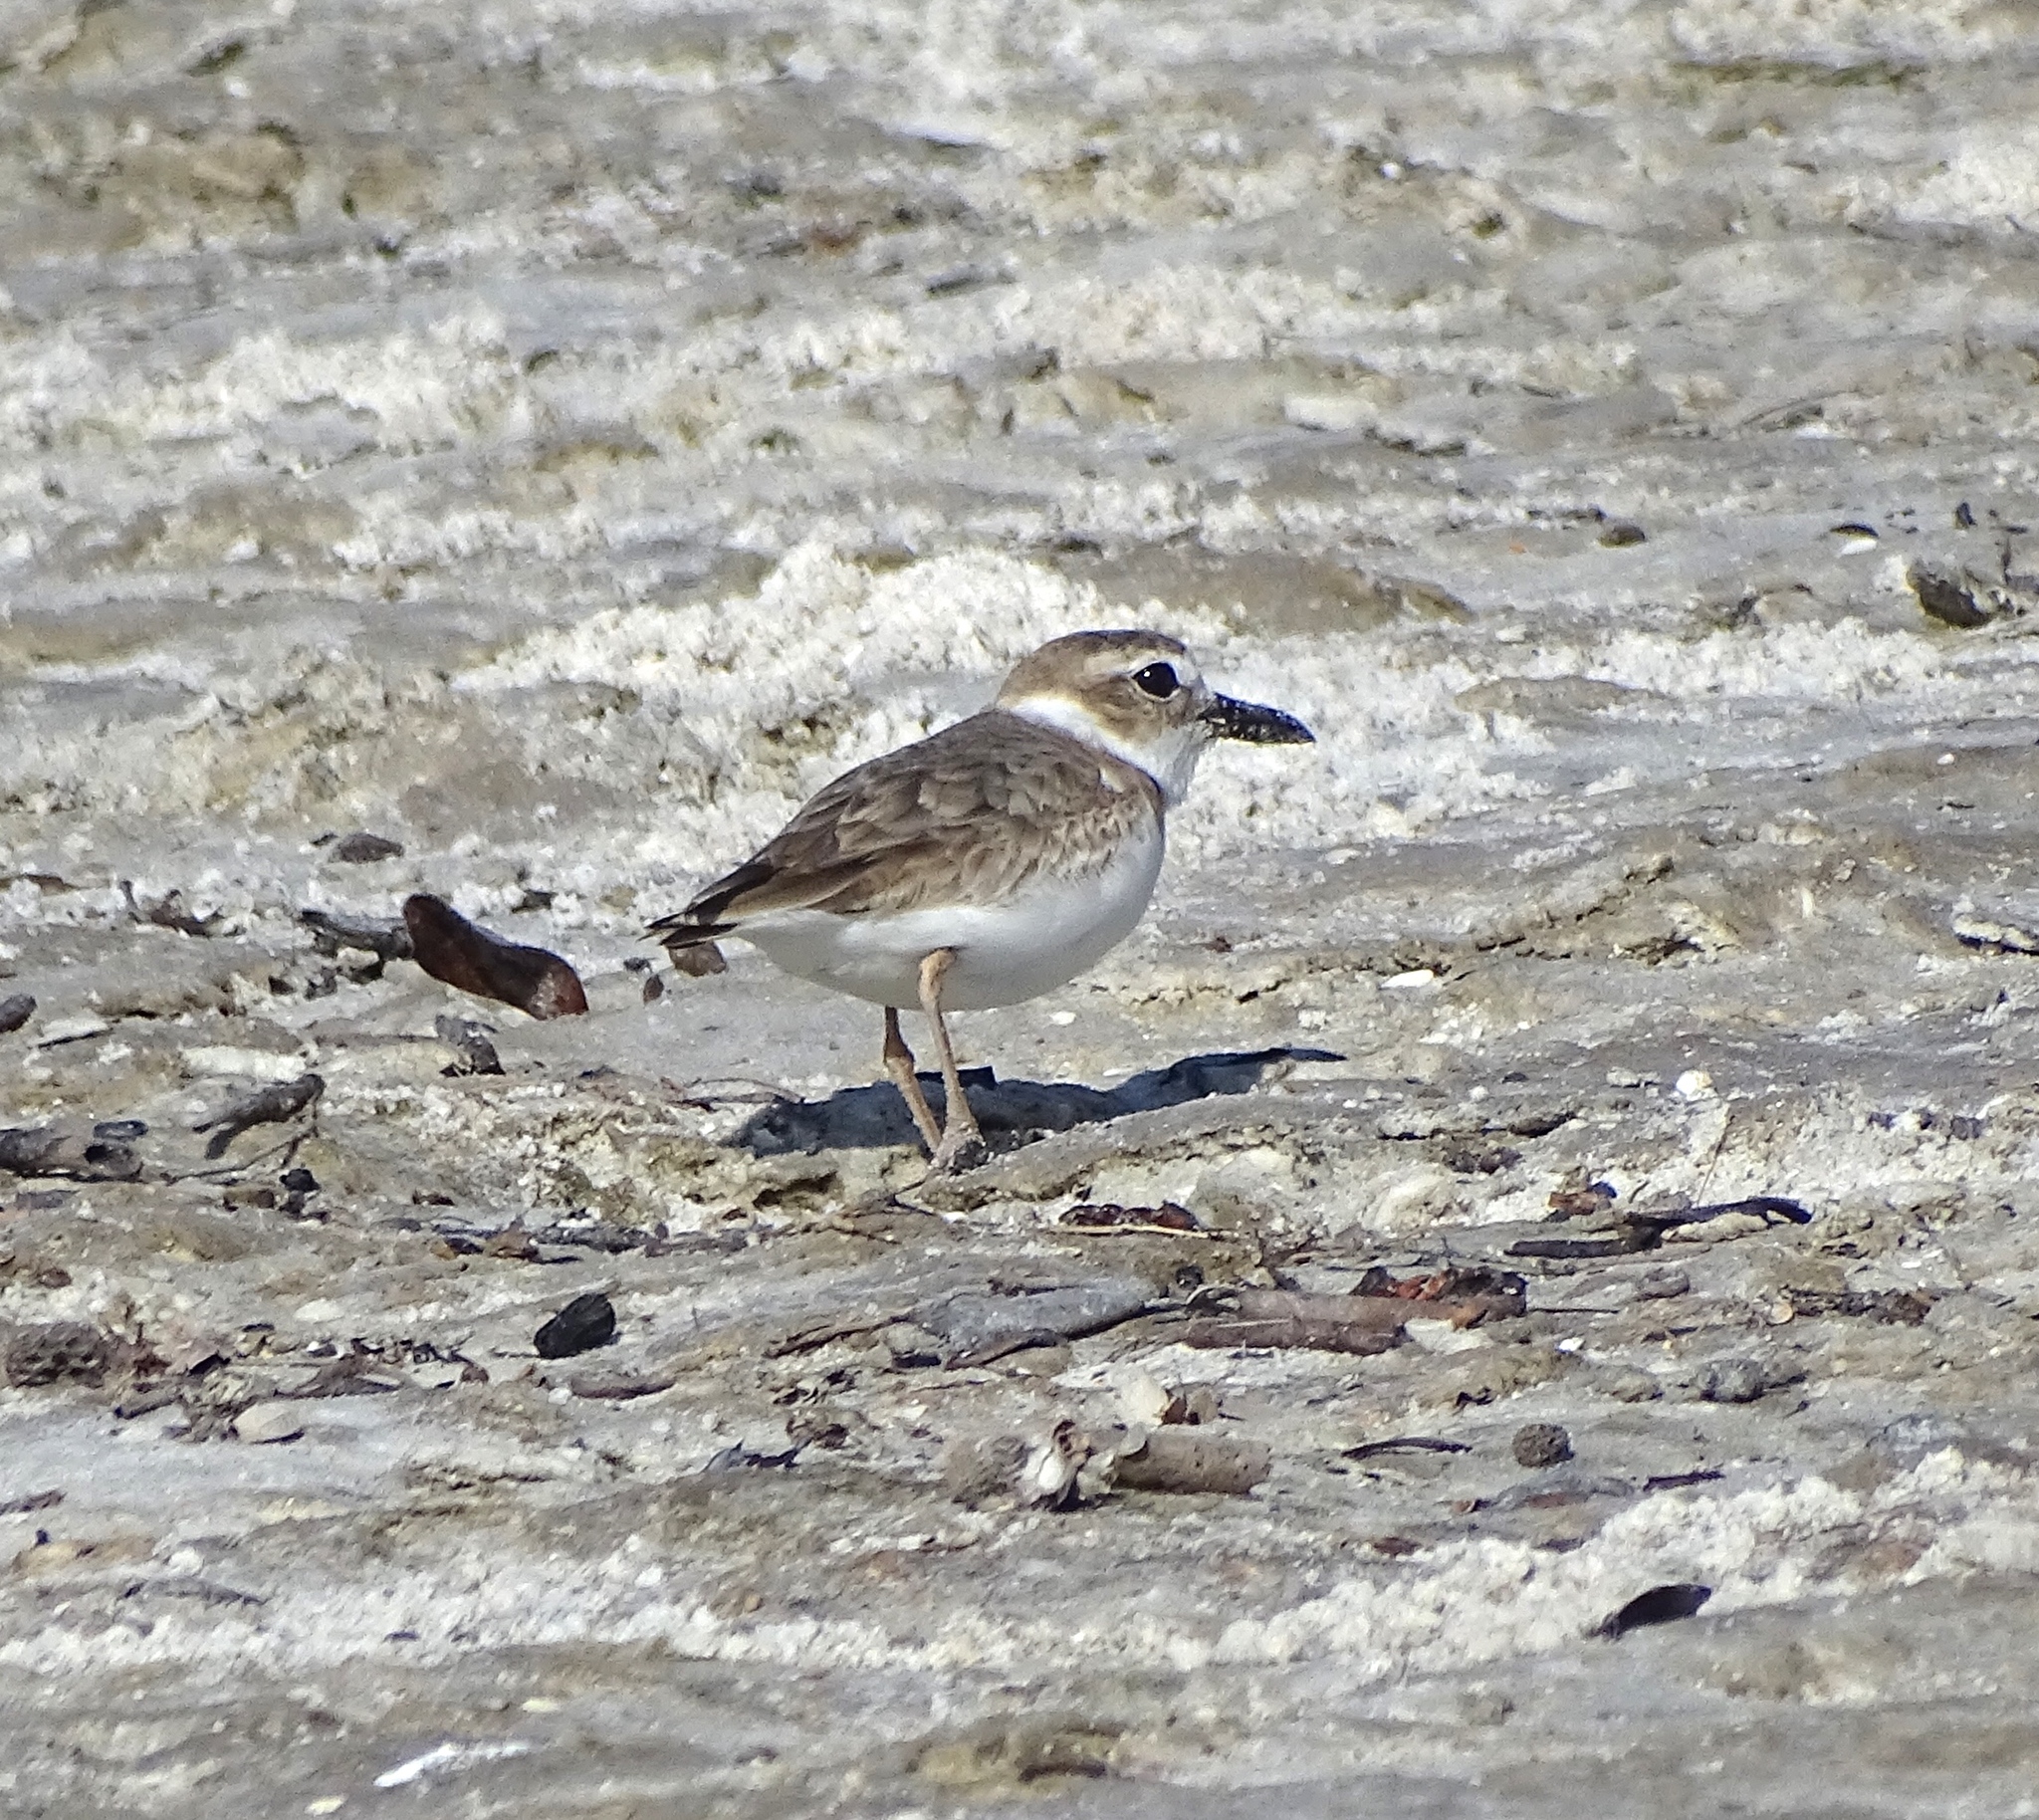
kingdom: Animalia
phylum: Chordata
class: Aves
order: Charadriiformes
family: Charadriidae
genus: Anarhynchus
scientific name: Anarhynchus
